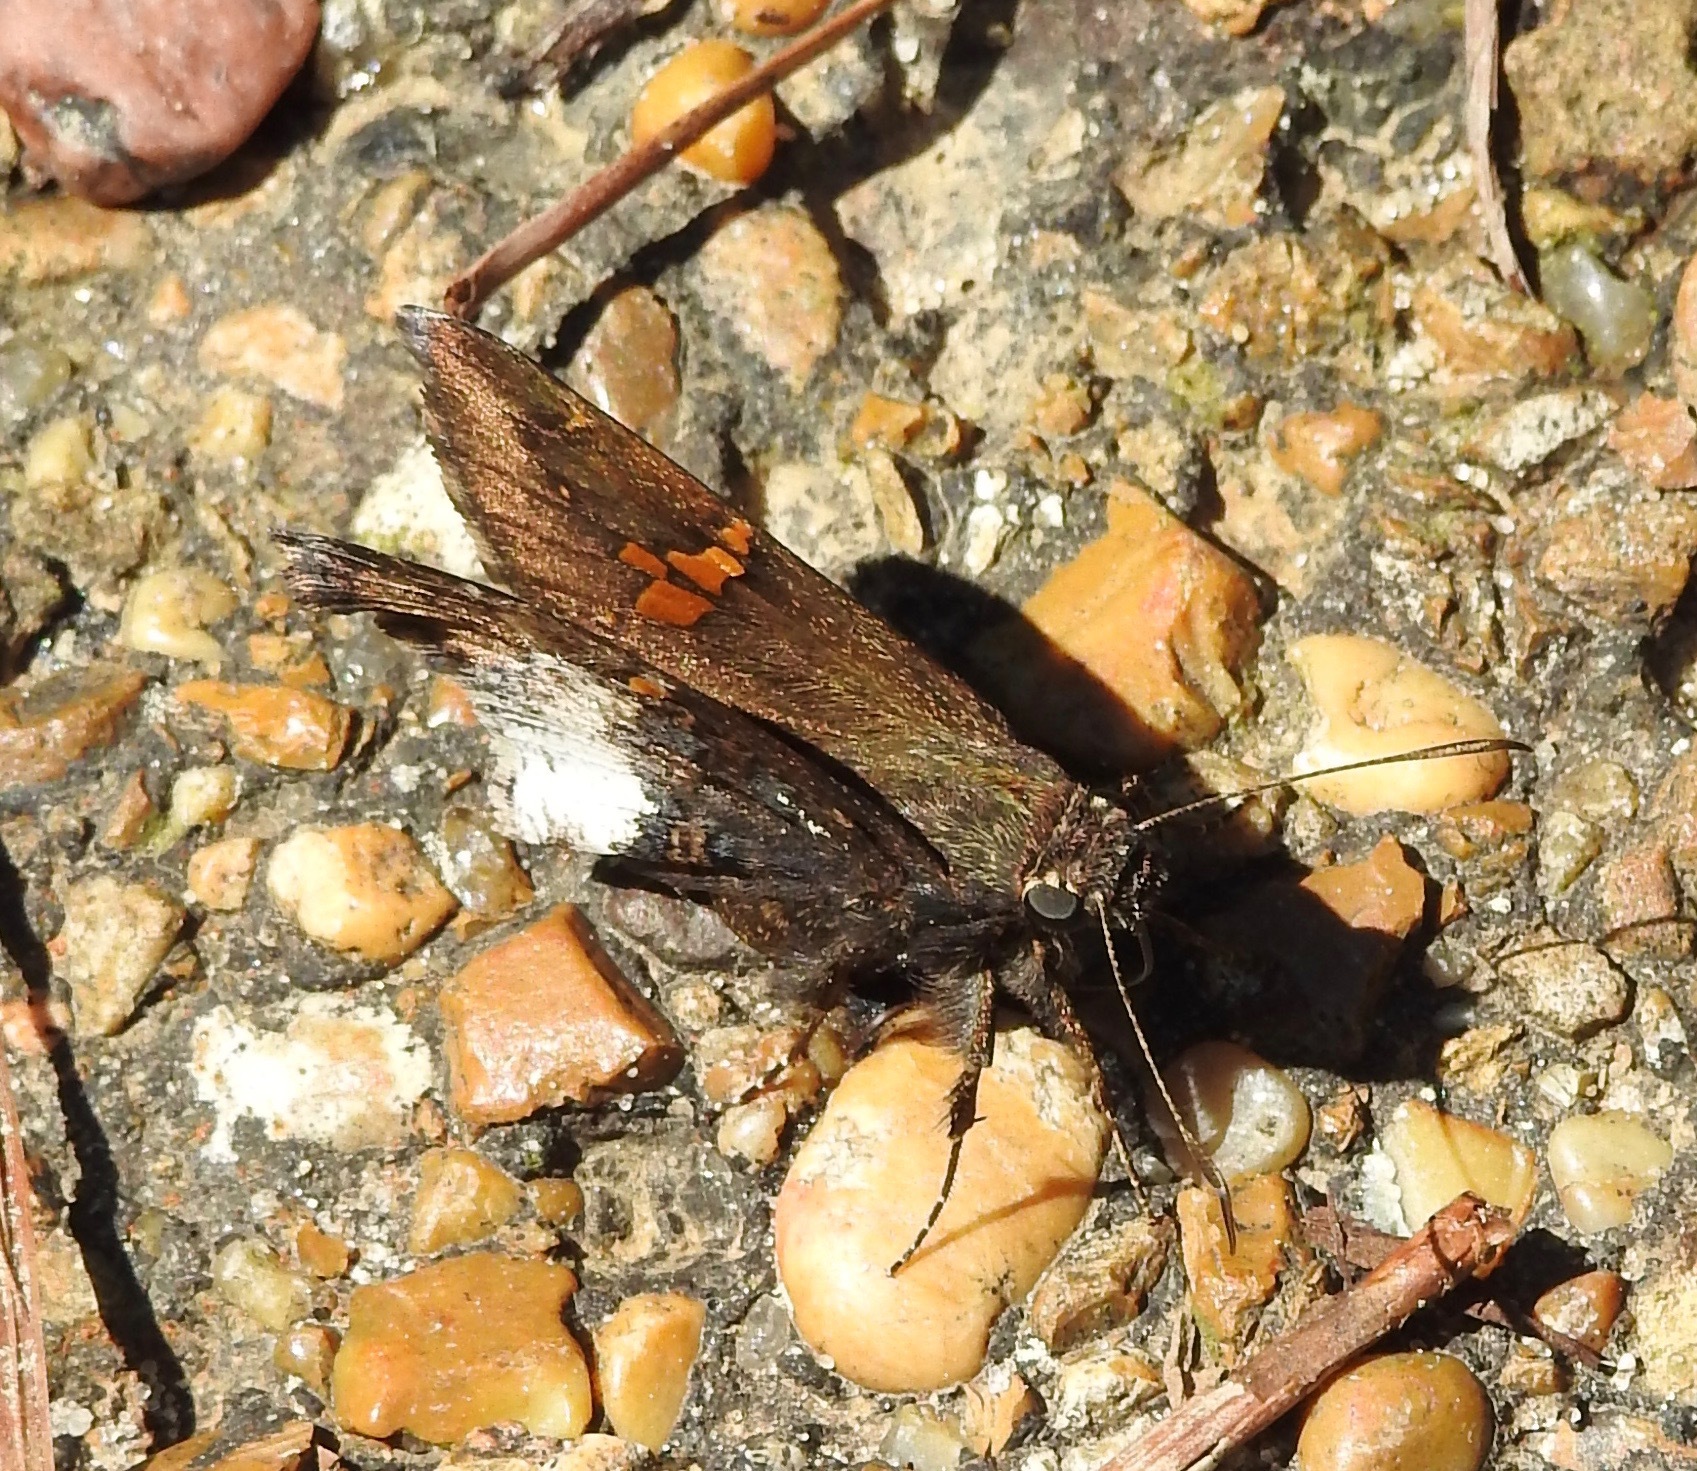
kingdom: Animalia
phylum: Arthropoda
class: Insecta
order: Lepidoptera
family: Hesperiidae
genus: Thorybes
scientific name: Thorybes lyciades
